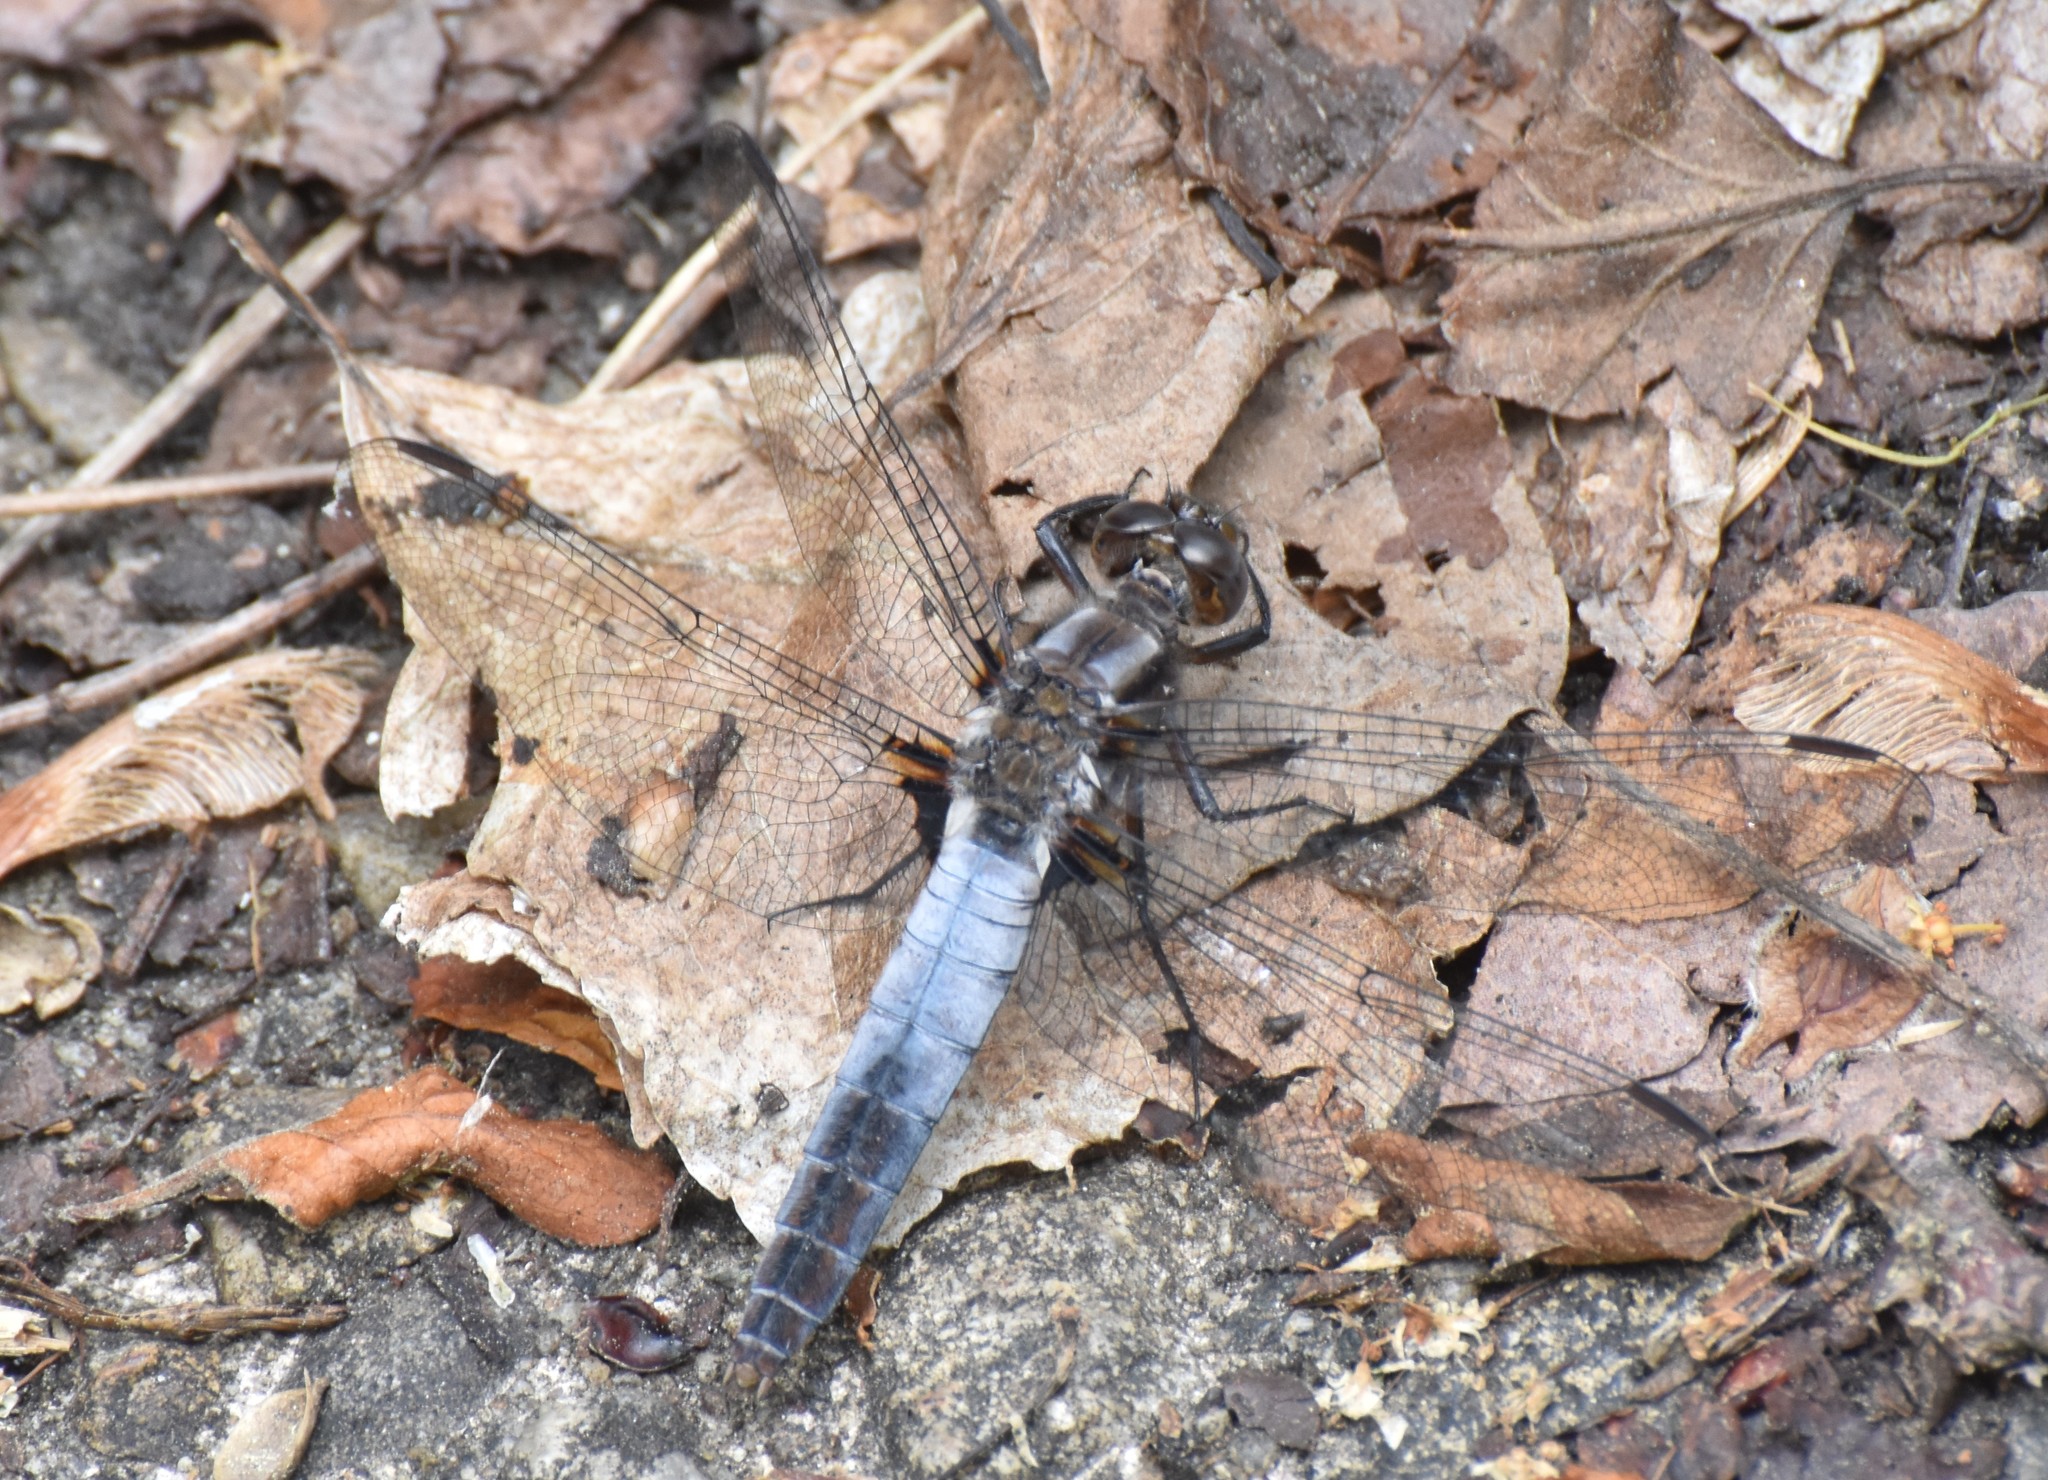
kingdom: Animalia
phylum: Arthropoda
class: Insecta
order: Odonata
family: Libellulidae
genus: Ladona
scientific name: Ladona julia
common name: Chalk-fronted corporal
